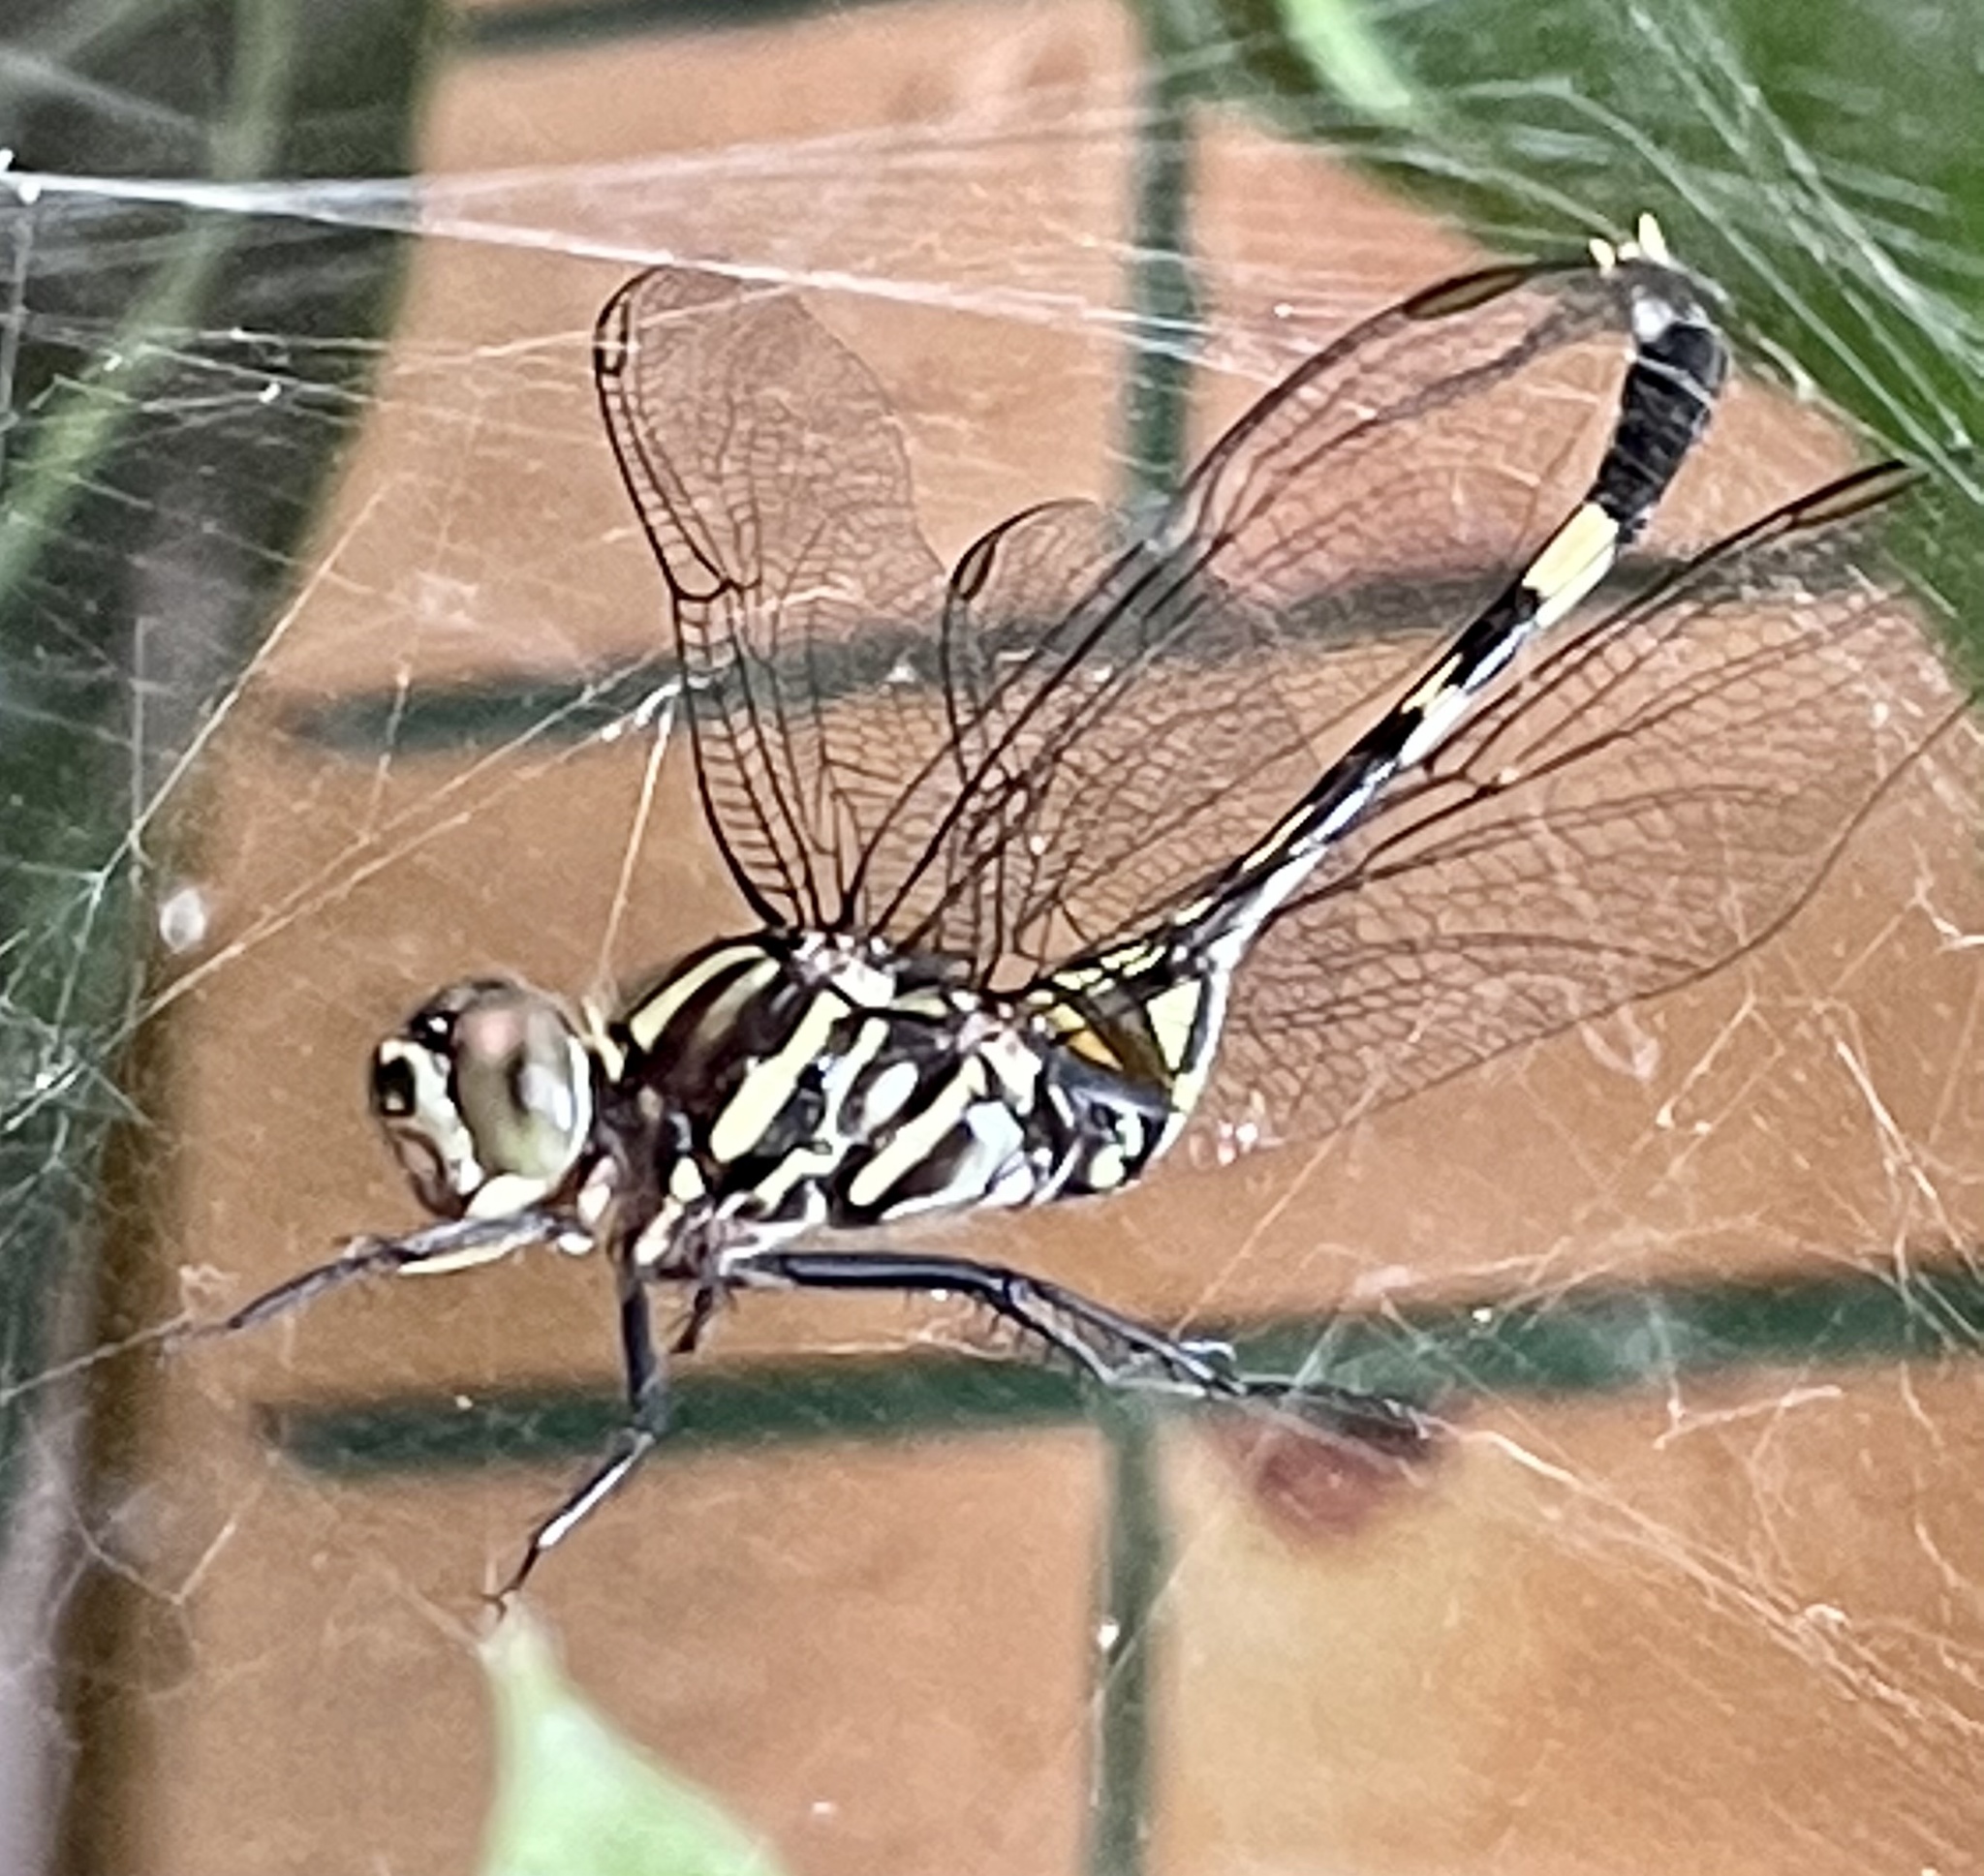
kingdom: Animalia
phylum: Arthropoda
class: Insecta
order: Odonata
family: Libellulidae
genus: Orthetrum
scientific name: Orthetrum serapia
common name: Green skimmer
